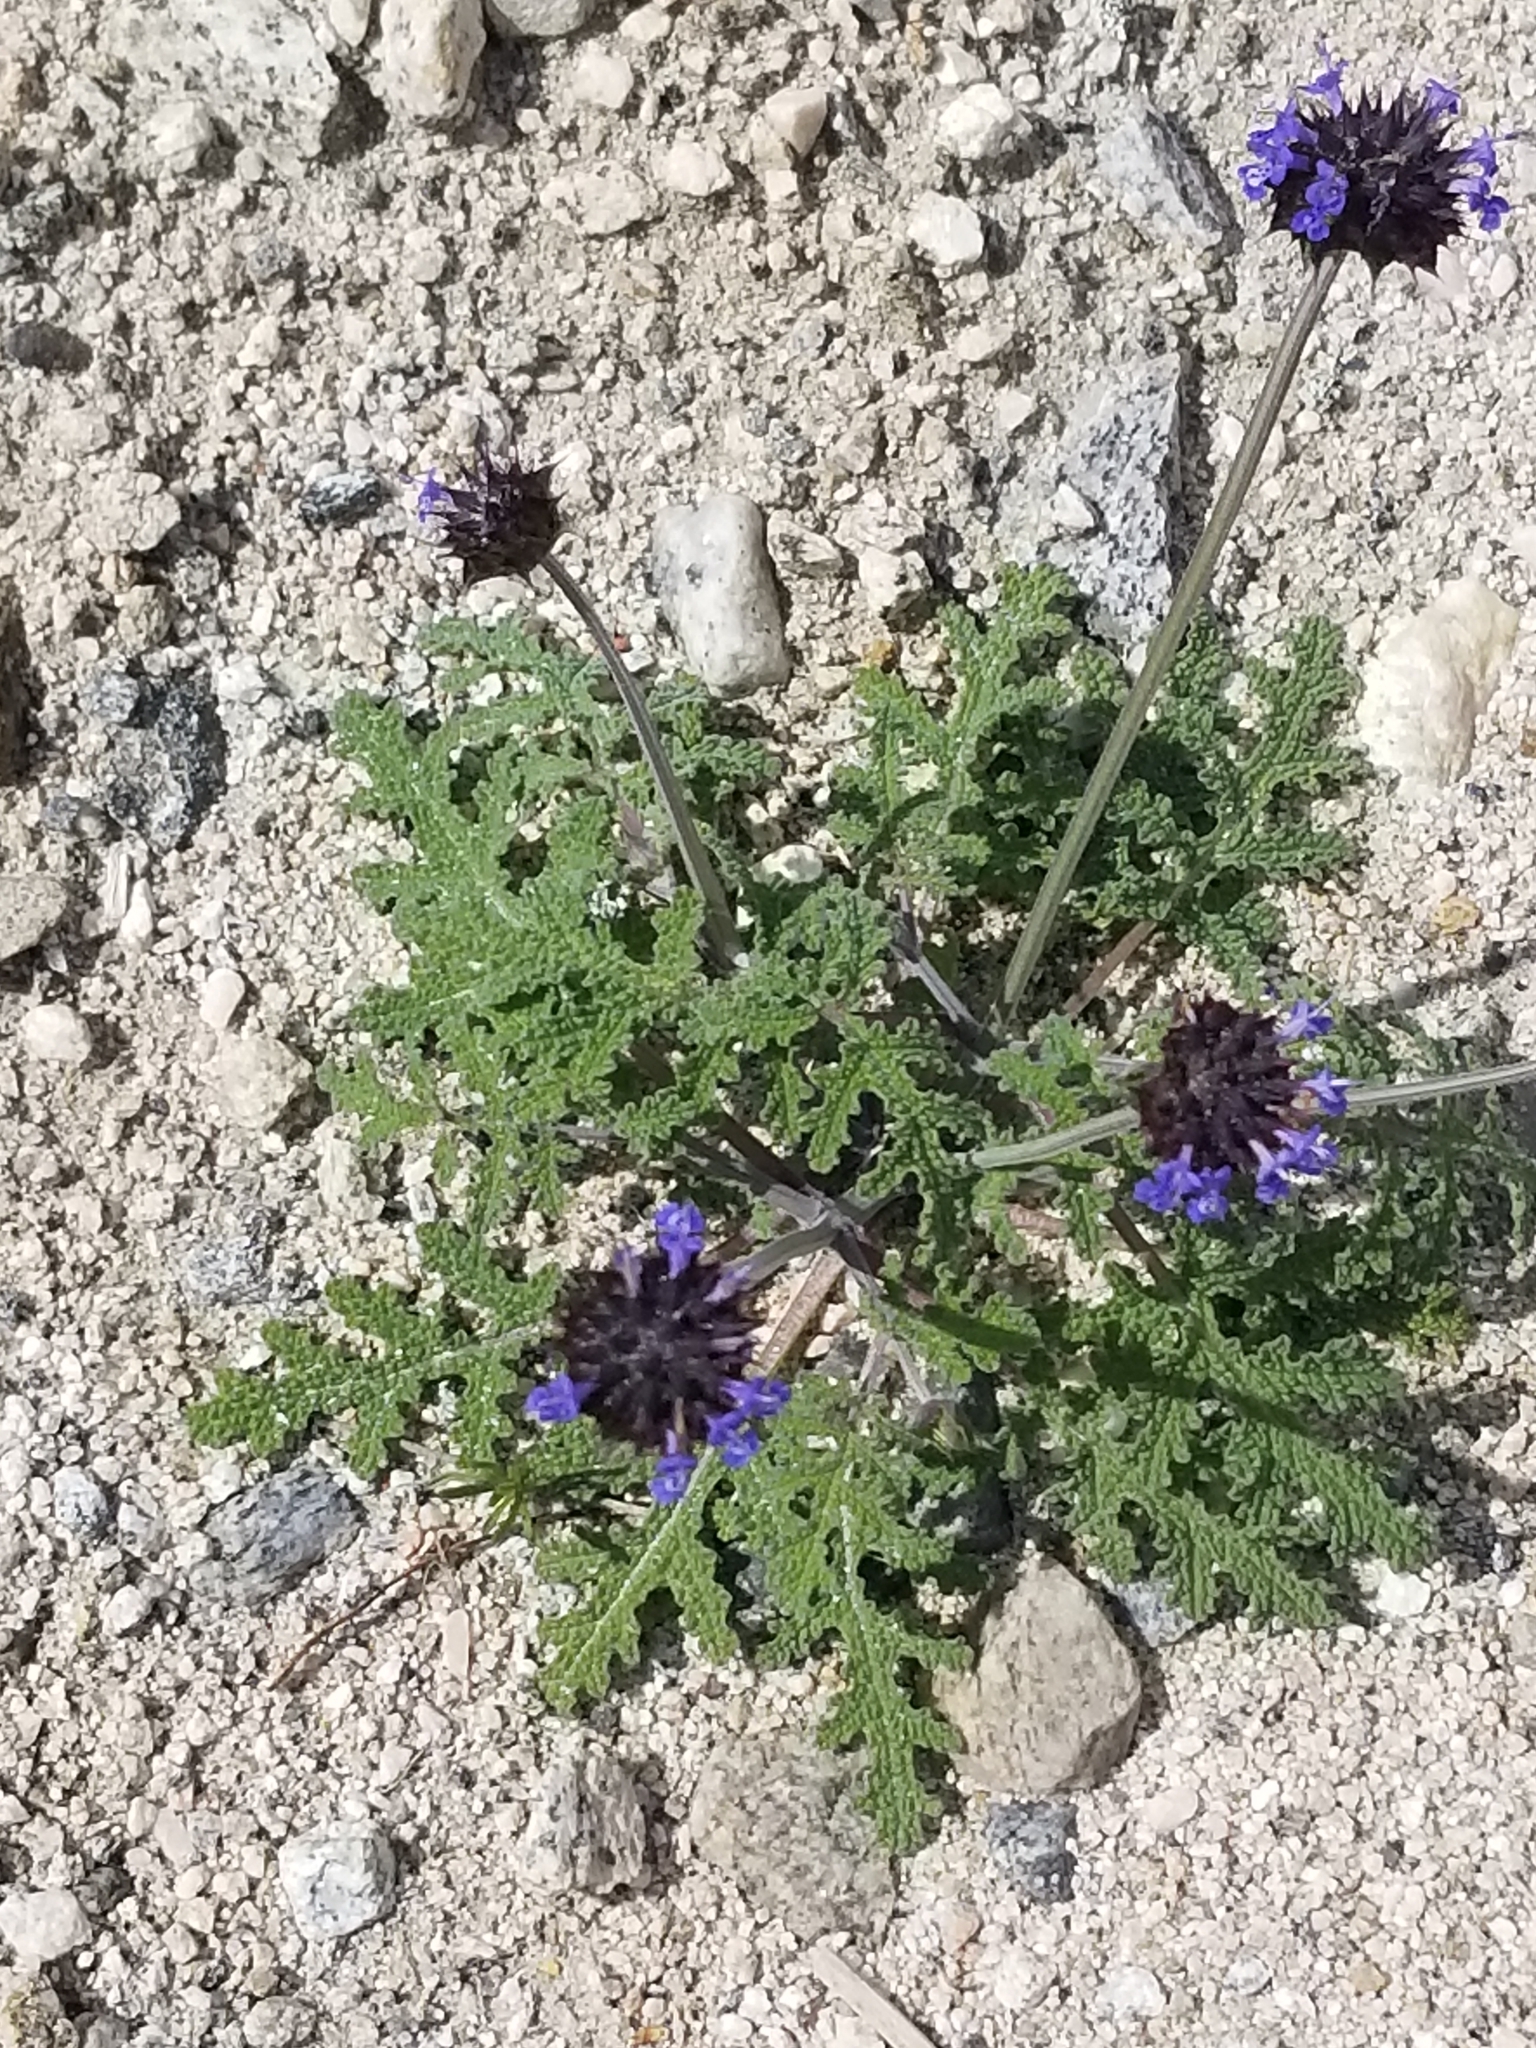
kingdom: Plantae
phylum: Tracheophyta
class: Magnoliopsida
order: Lamiales
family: Lamiaceae
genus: Salvia
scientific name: Salvia columbariae
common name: Chia
